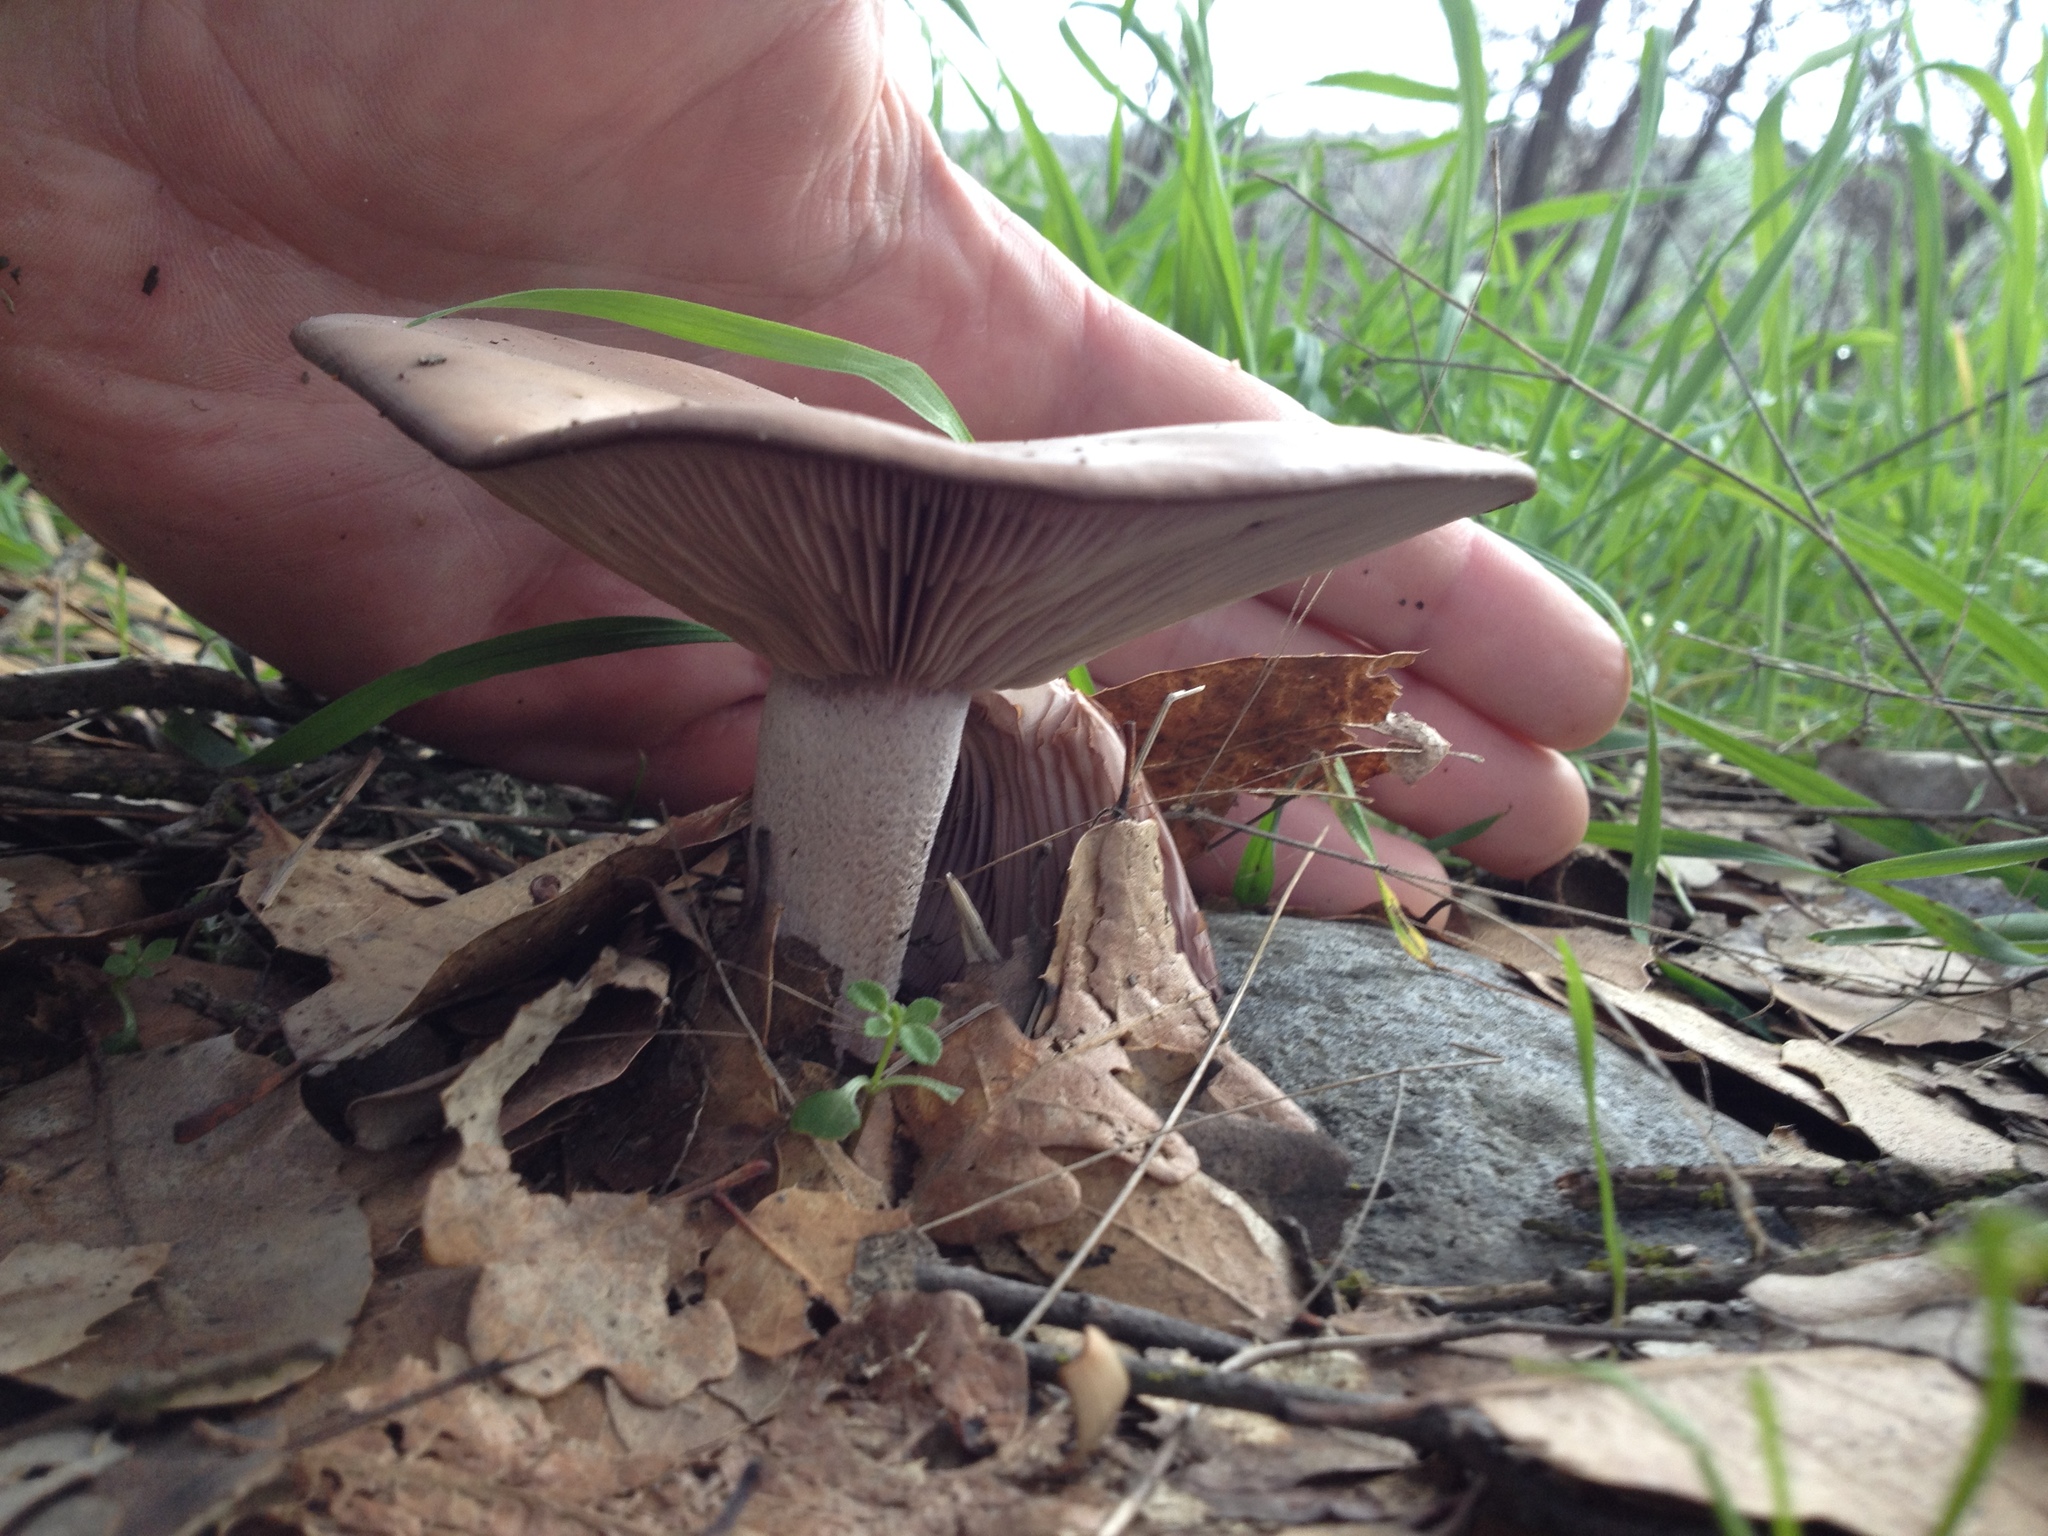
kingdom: Fungi
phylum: Basidiomycota
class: Agaricomycetes
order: Agaricales
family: Tricholomataceae
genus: Collybia
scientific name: Collybia
